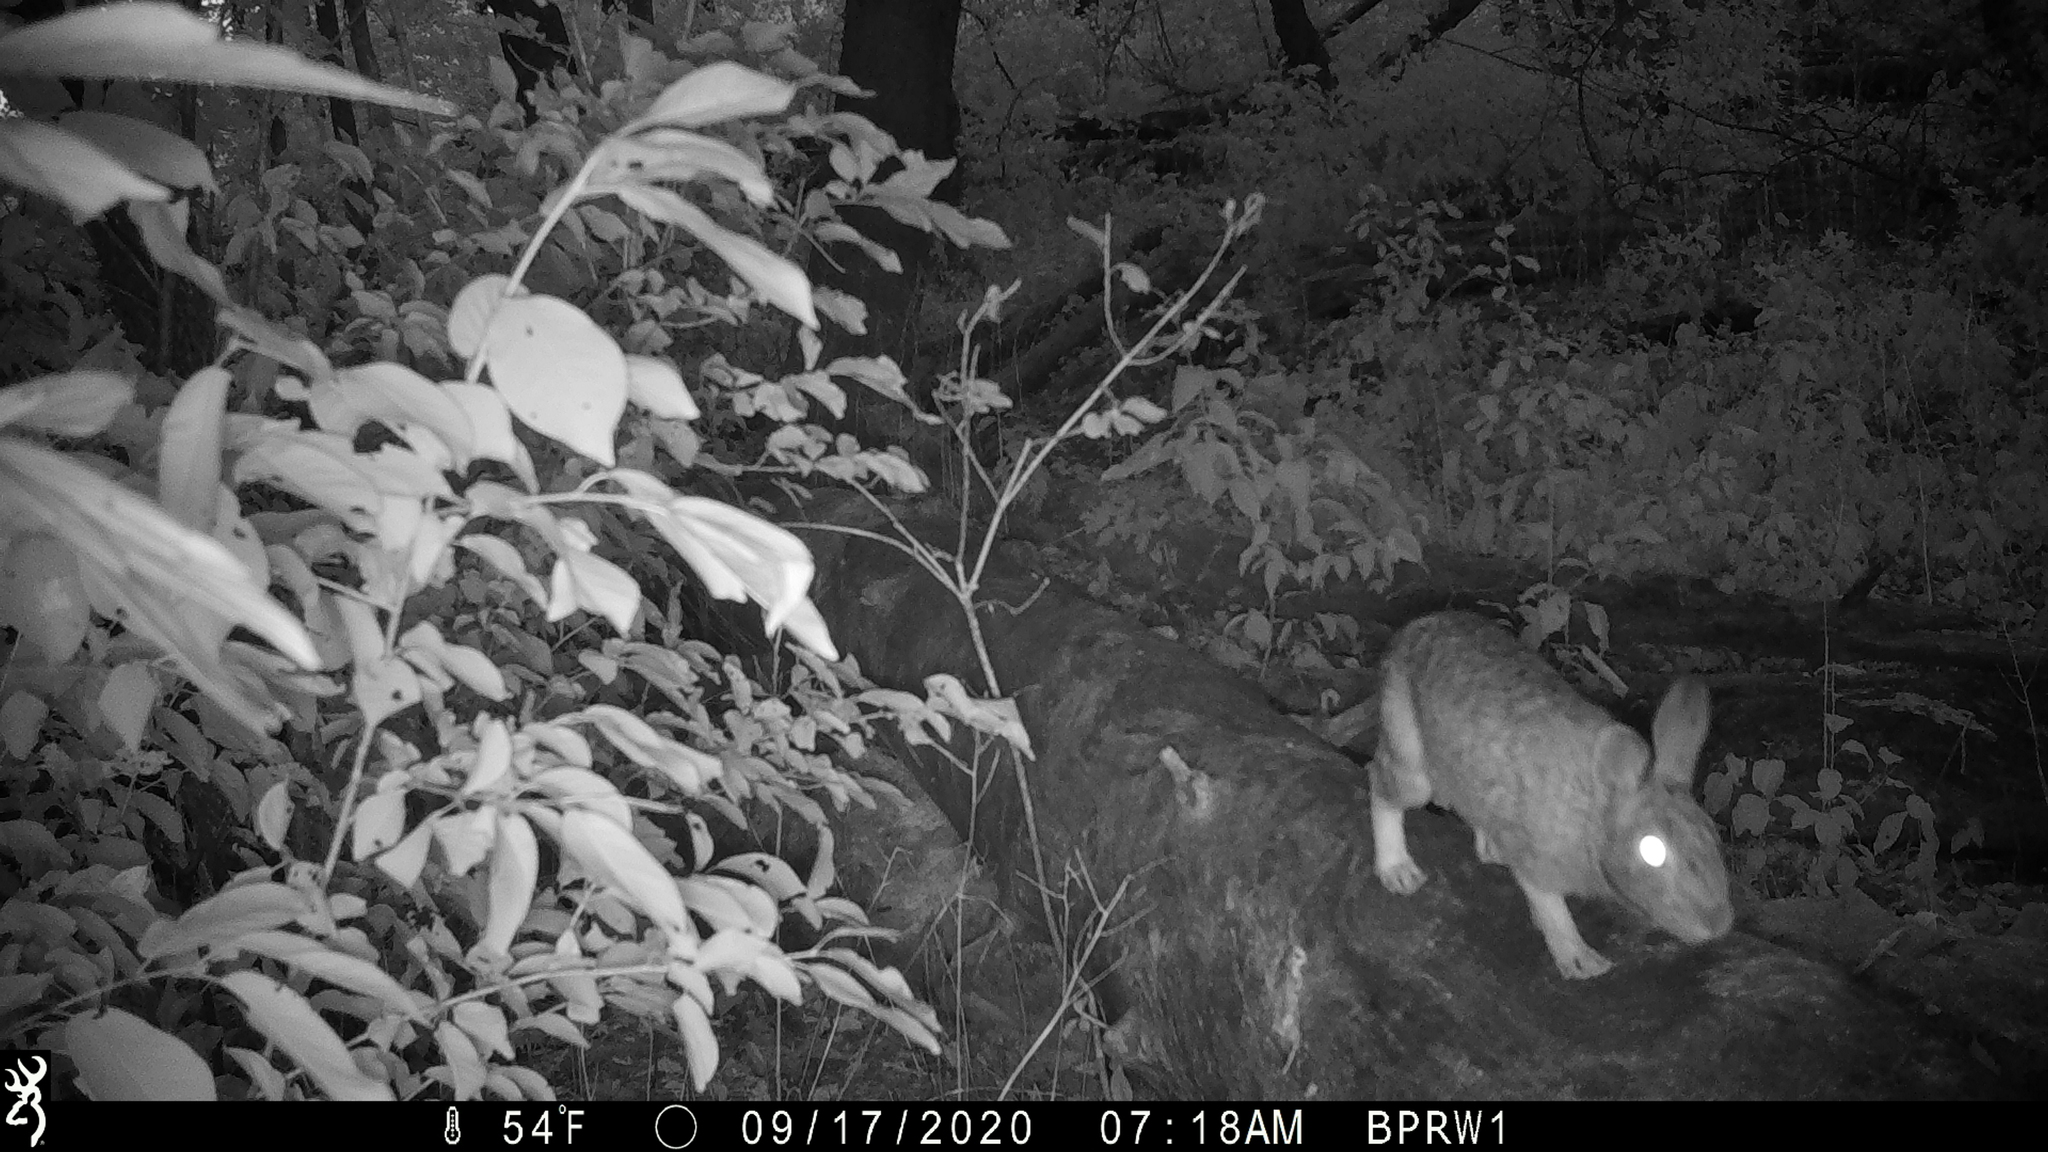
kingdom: Animalia
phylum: Chordata
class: Mammalia
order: Lagomorpha
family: Leporidae
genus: Sylvilagus
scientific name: Sylvilagus floridanus
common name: Eastern cottontail
